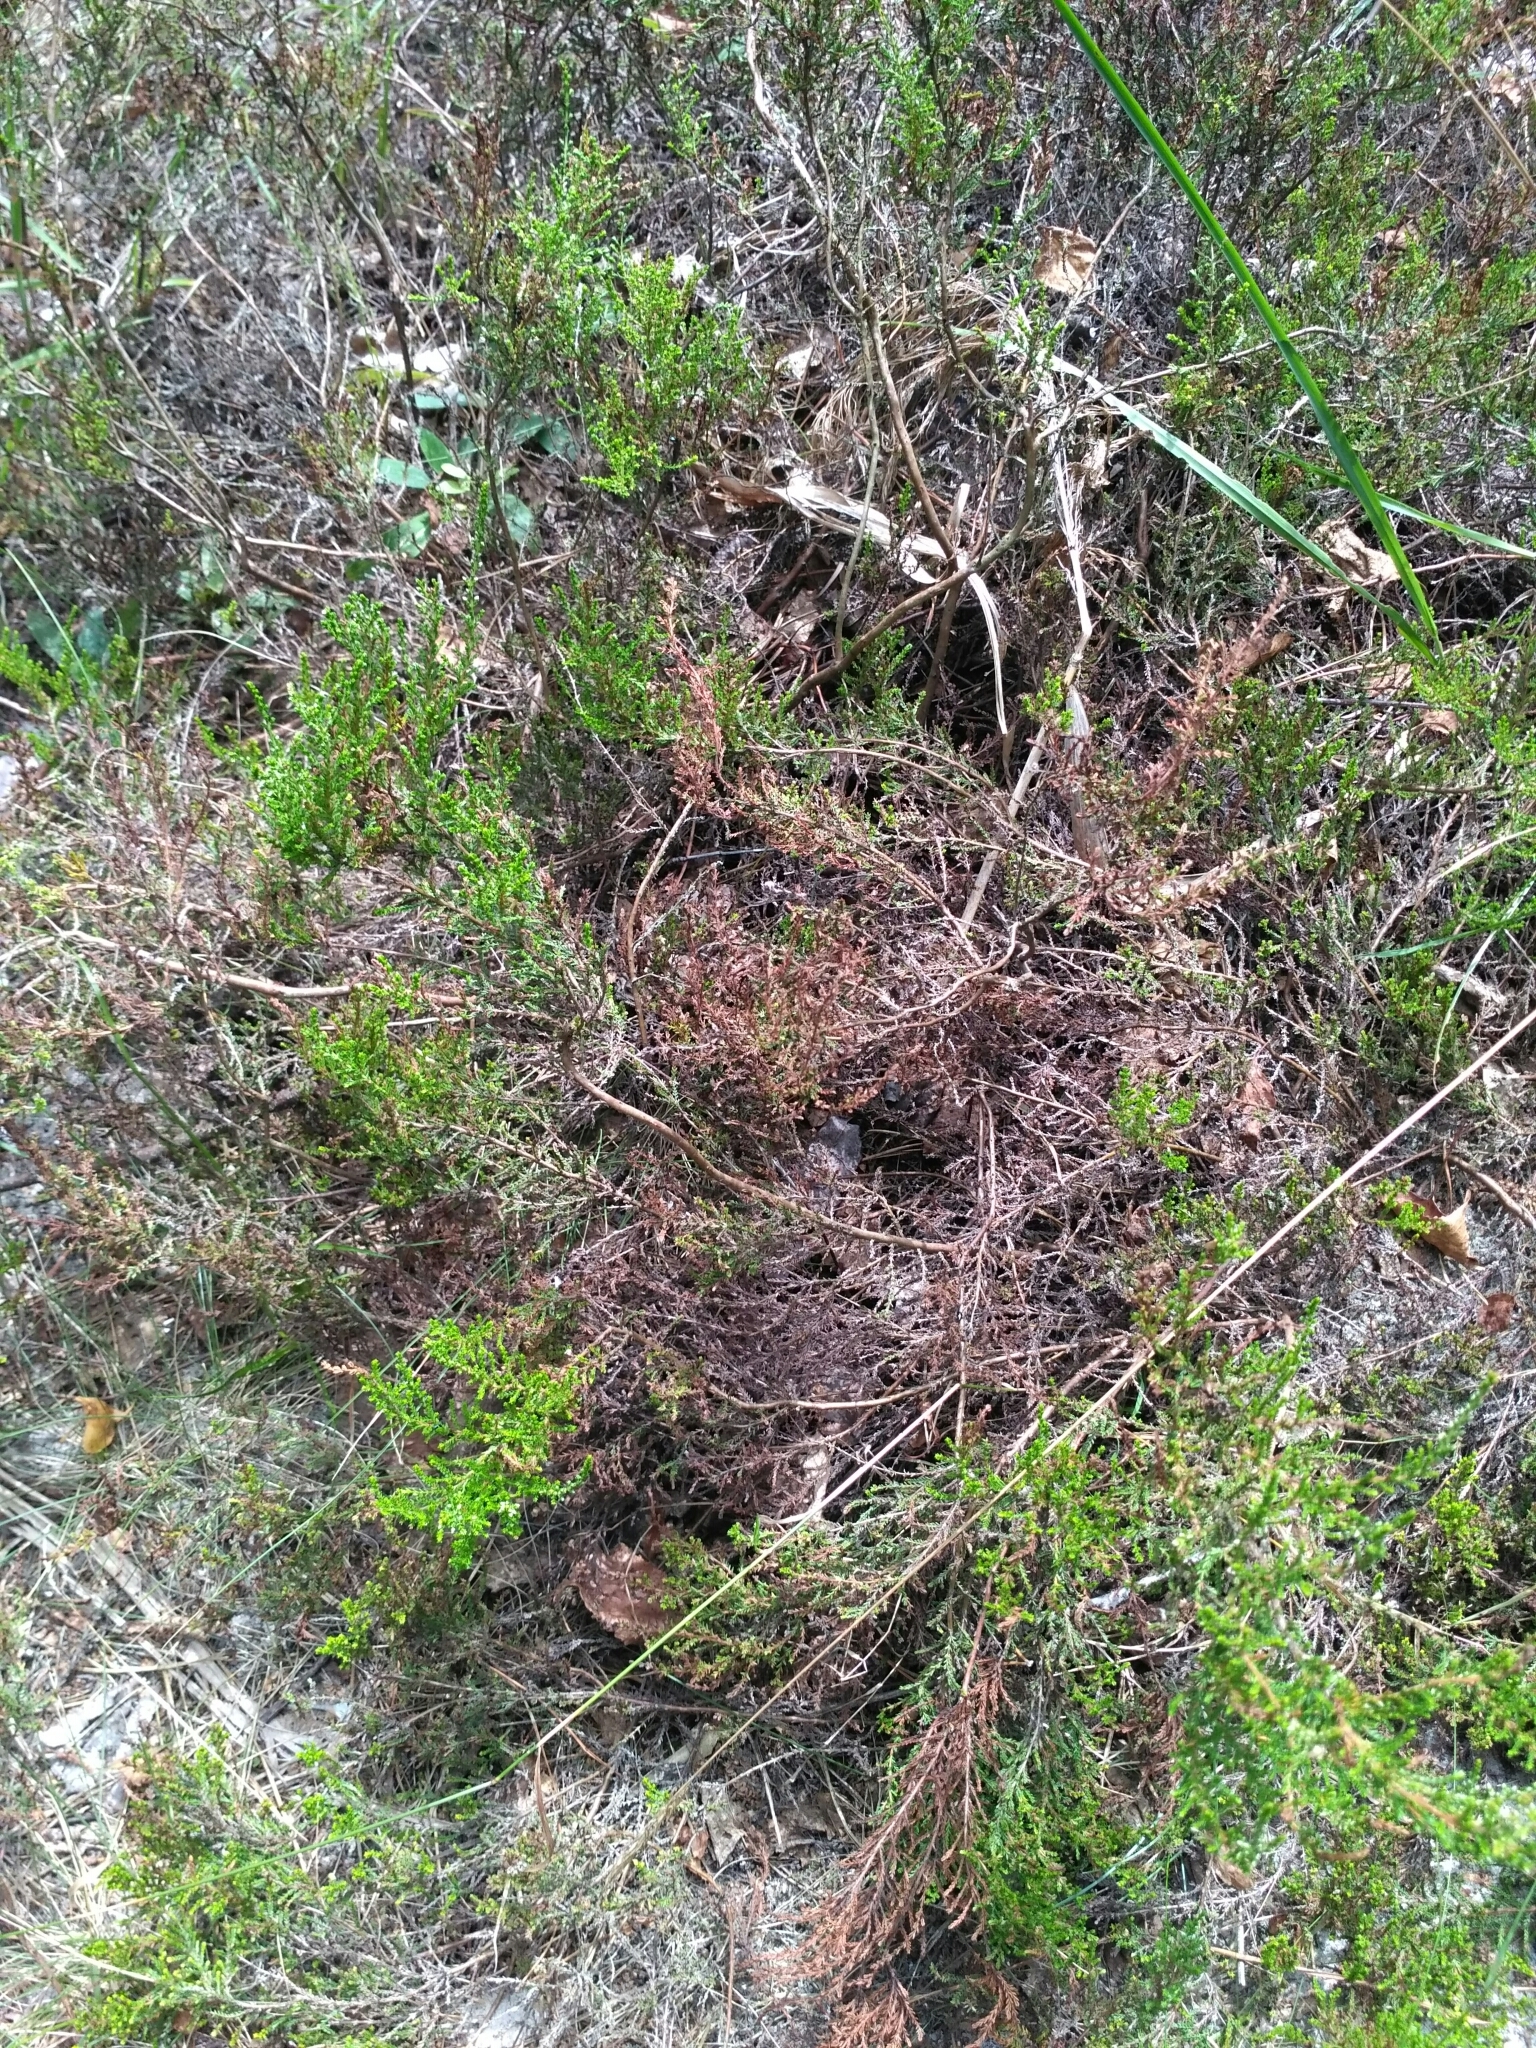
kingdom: Plantae
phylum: Tracheophyta
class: Magnoliopsida
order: Ericales
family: Ericaceae
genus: Calluna
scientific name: Calluna vulgaris
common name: Heather
